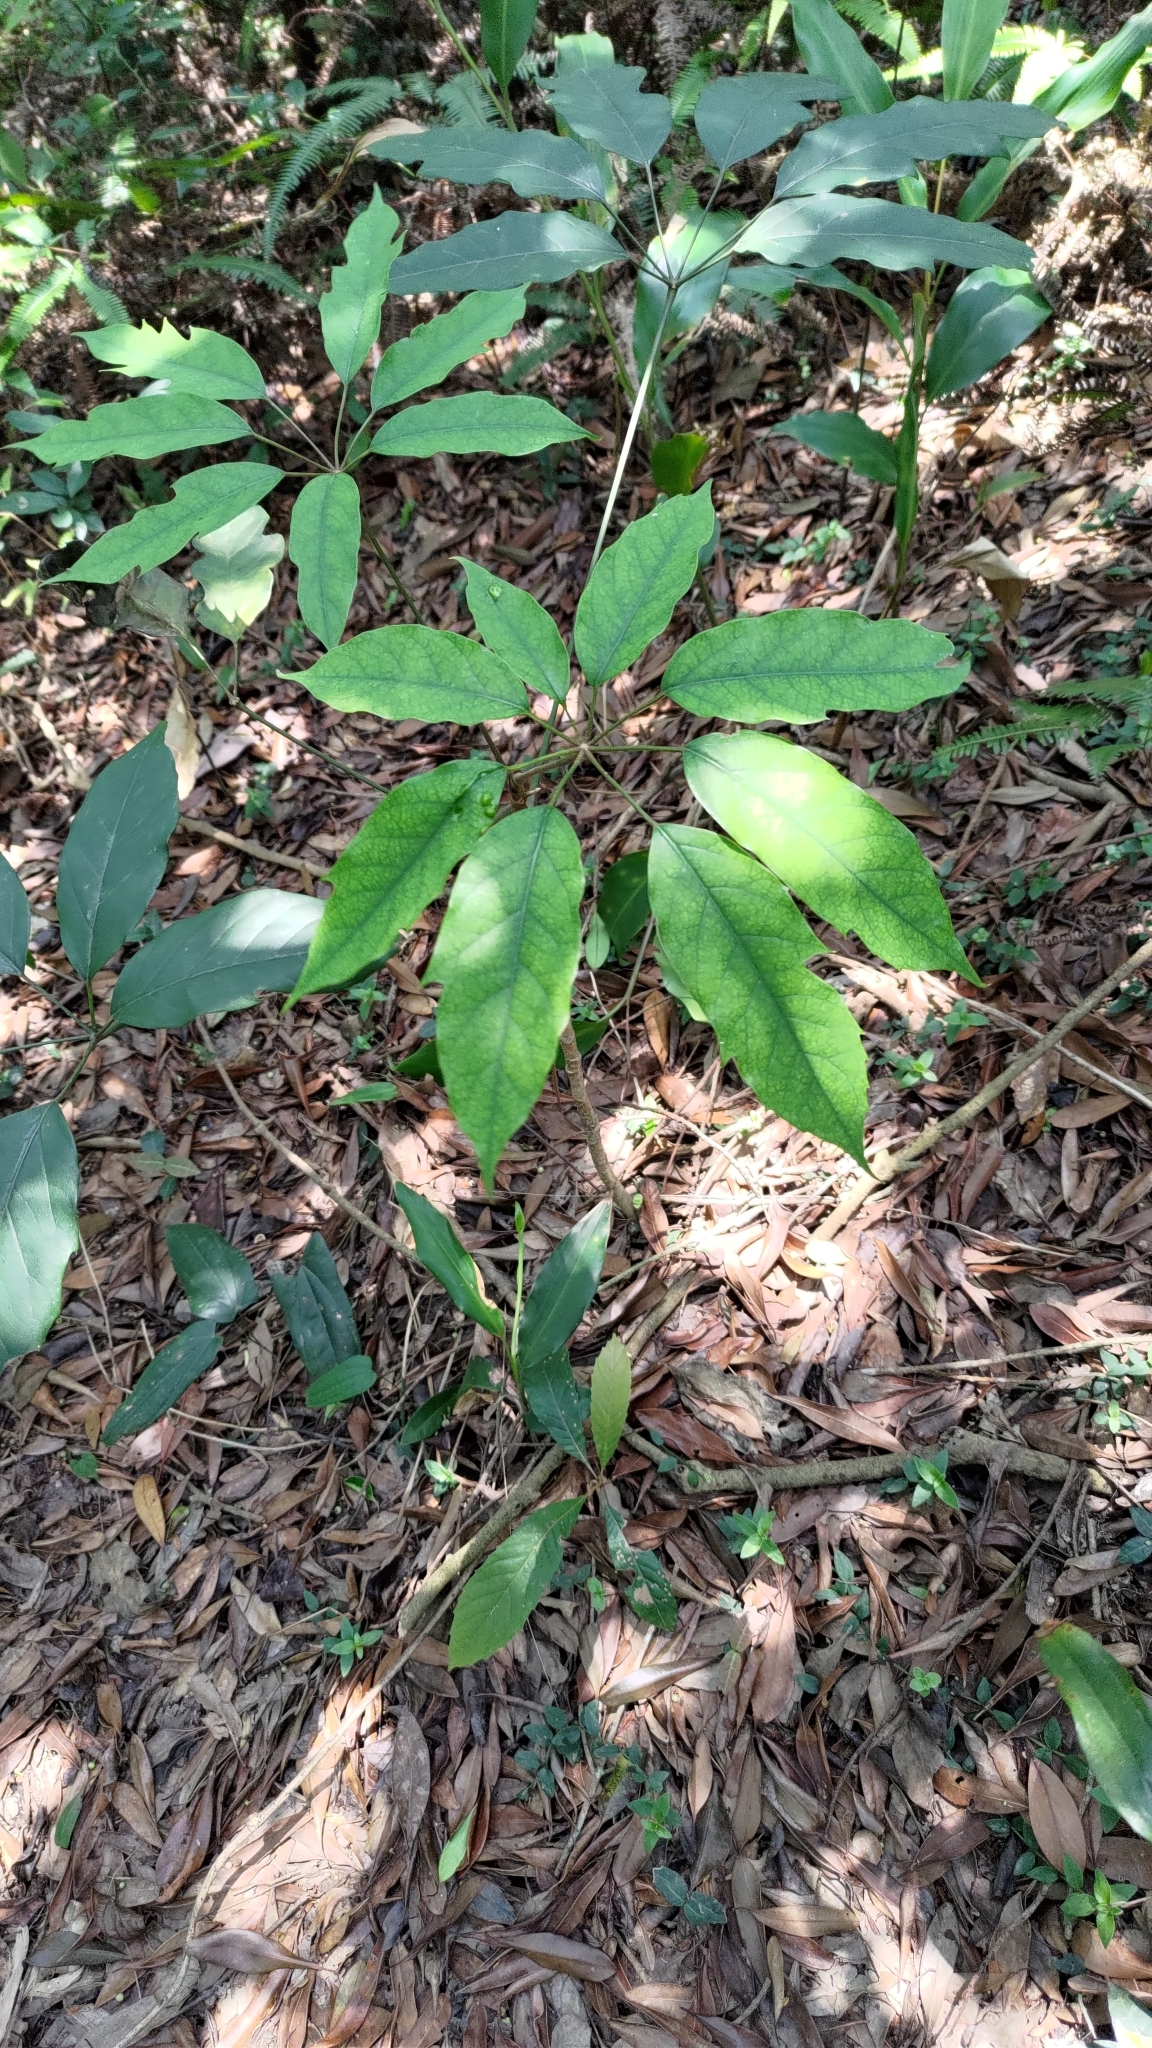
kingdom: Plantae
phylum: Tracheophyta
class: Magnoliopsida
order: Apiales
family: Araliaceae
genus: Heptapleurum
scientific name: Heptapleurum heptaphyllum
